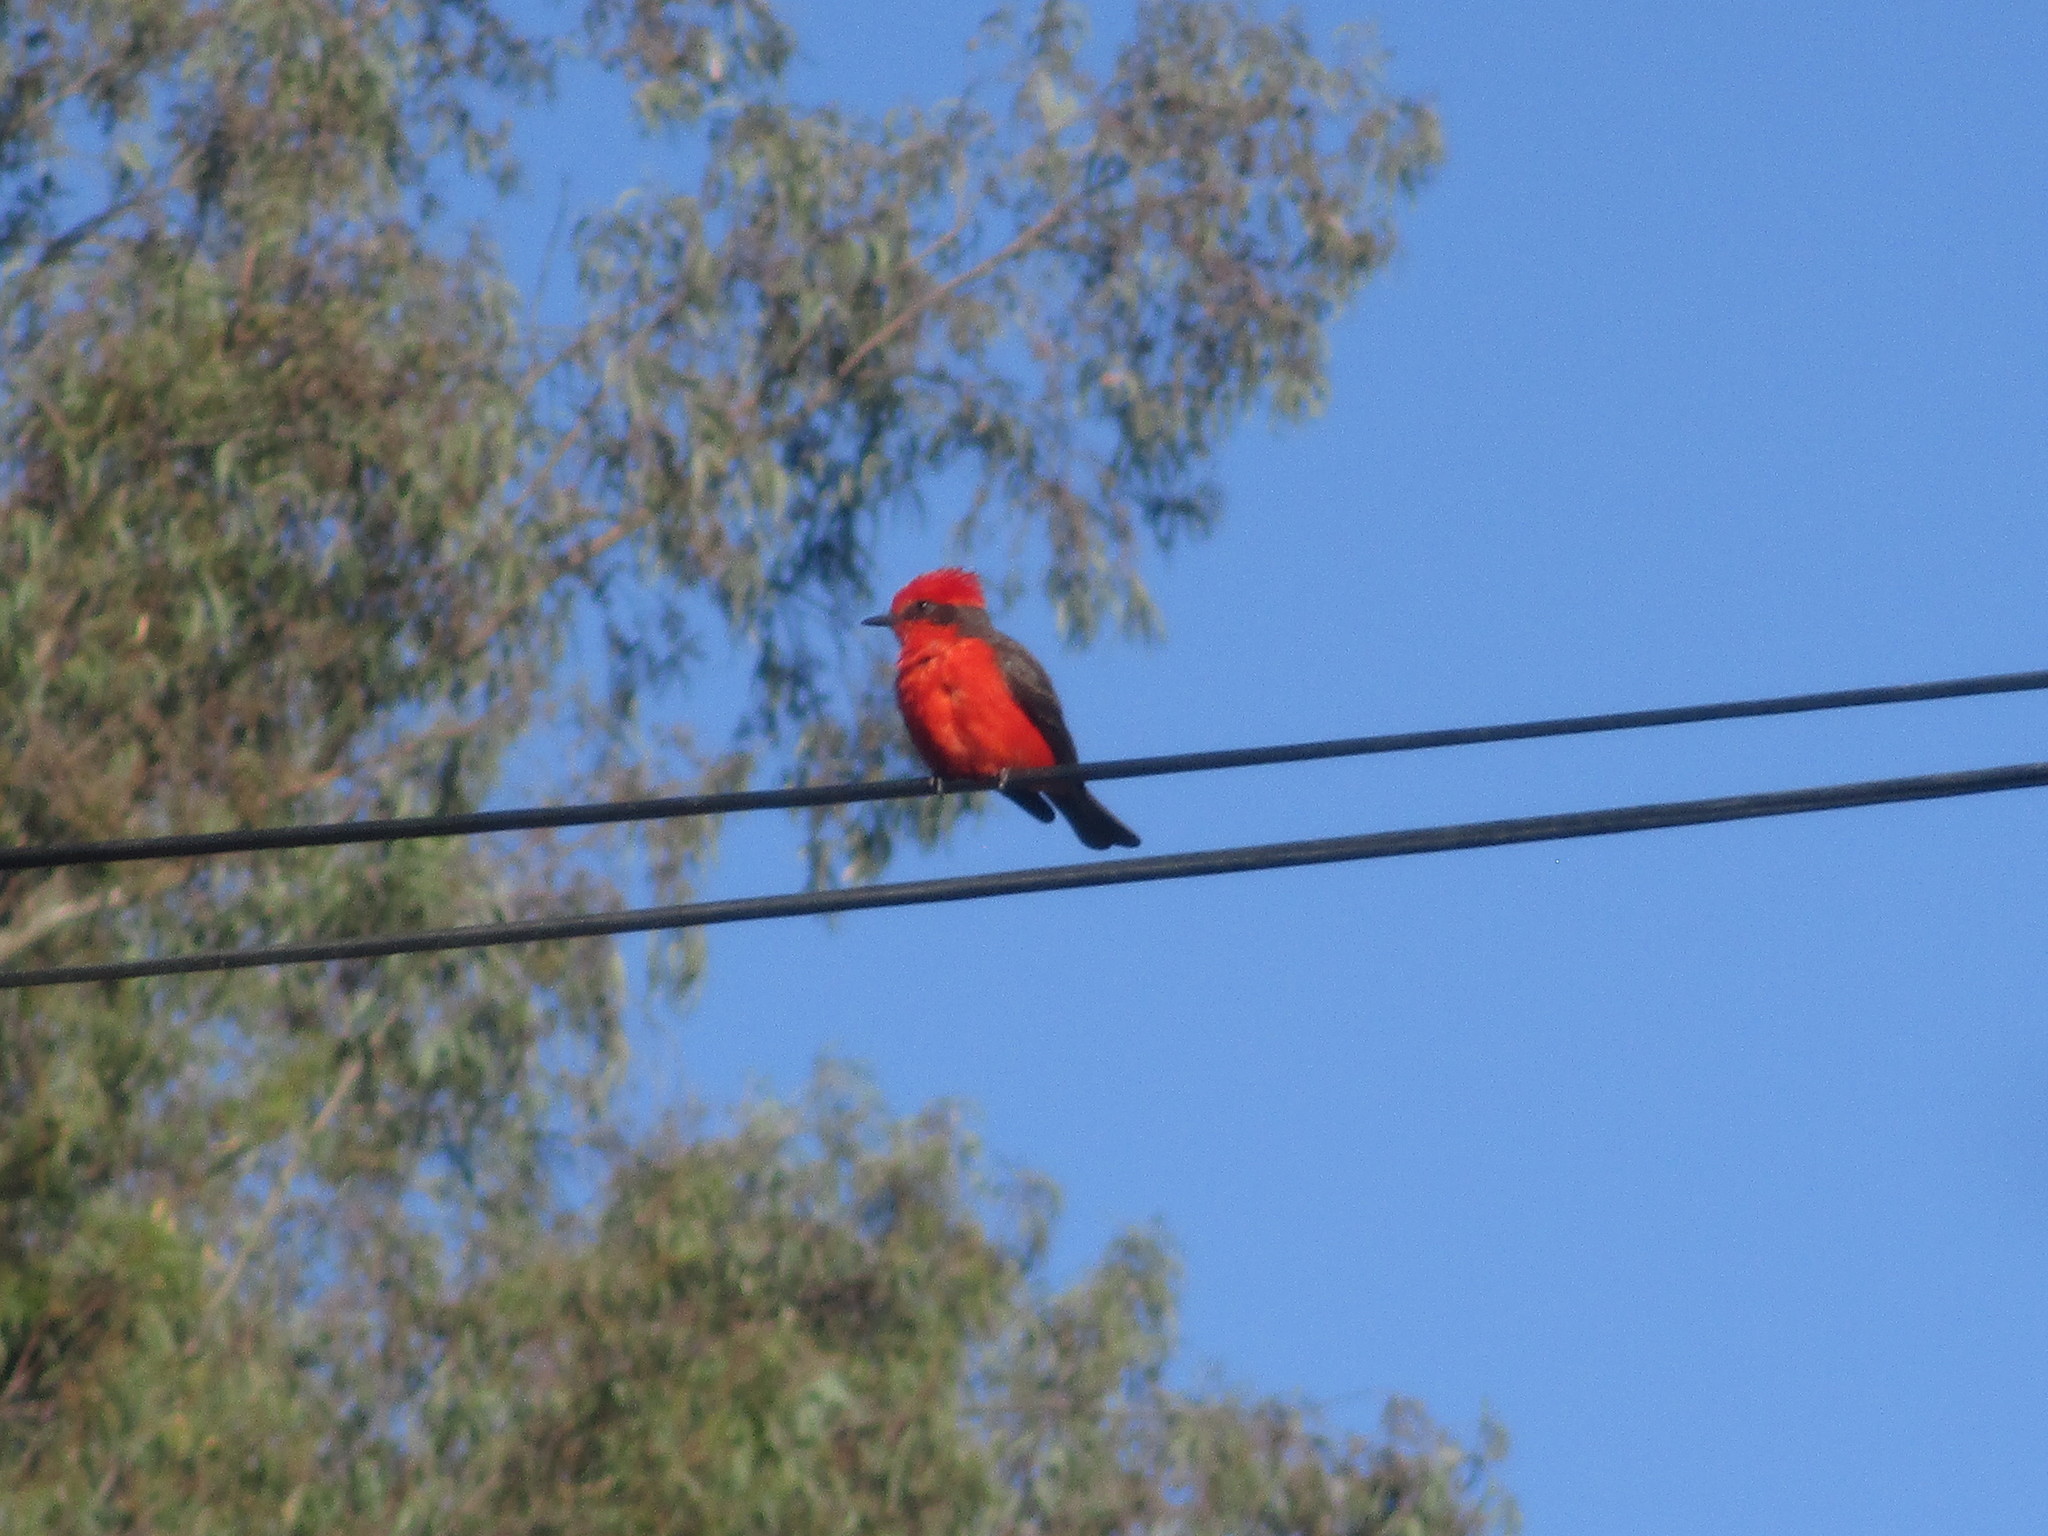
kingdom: Animalia
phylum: Chordata
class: Aves
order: Passeriformes
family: Tyrannidae
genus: Pyrocephalus
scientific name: Pyrocephalus rubinus
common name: Vermilion flycatcher
